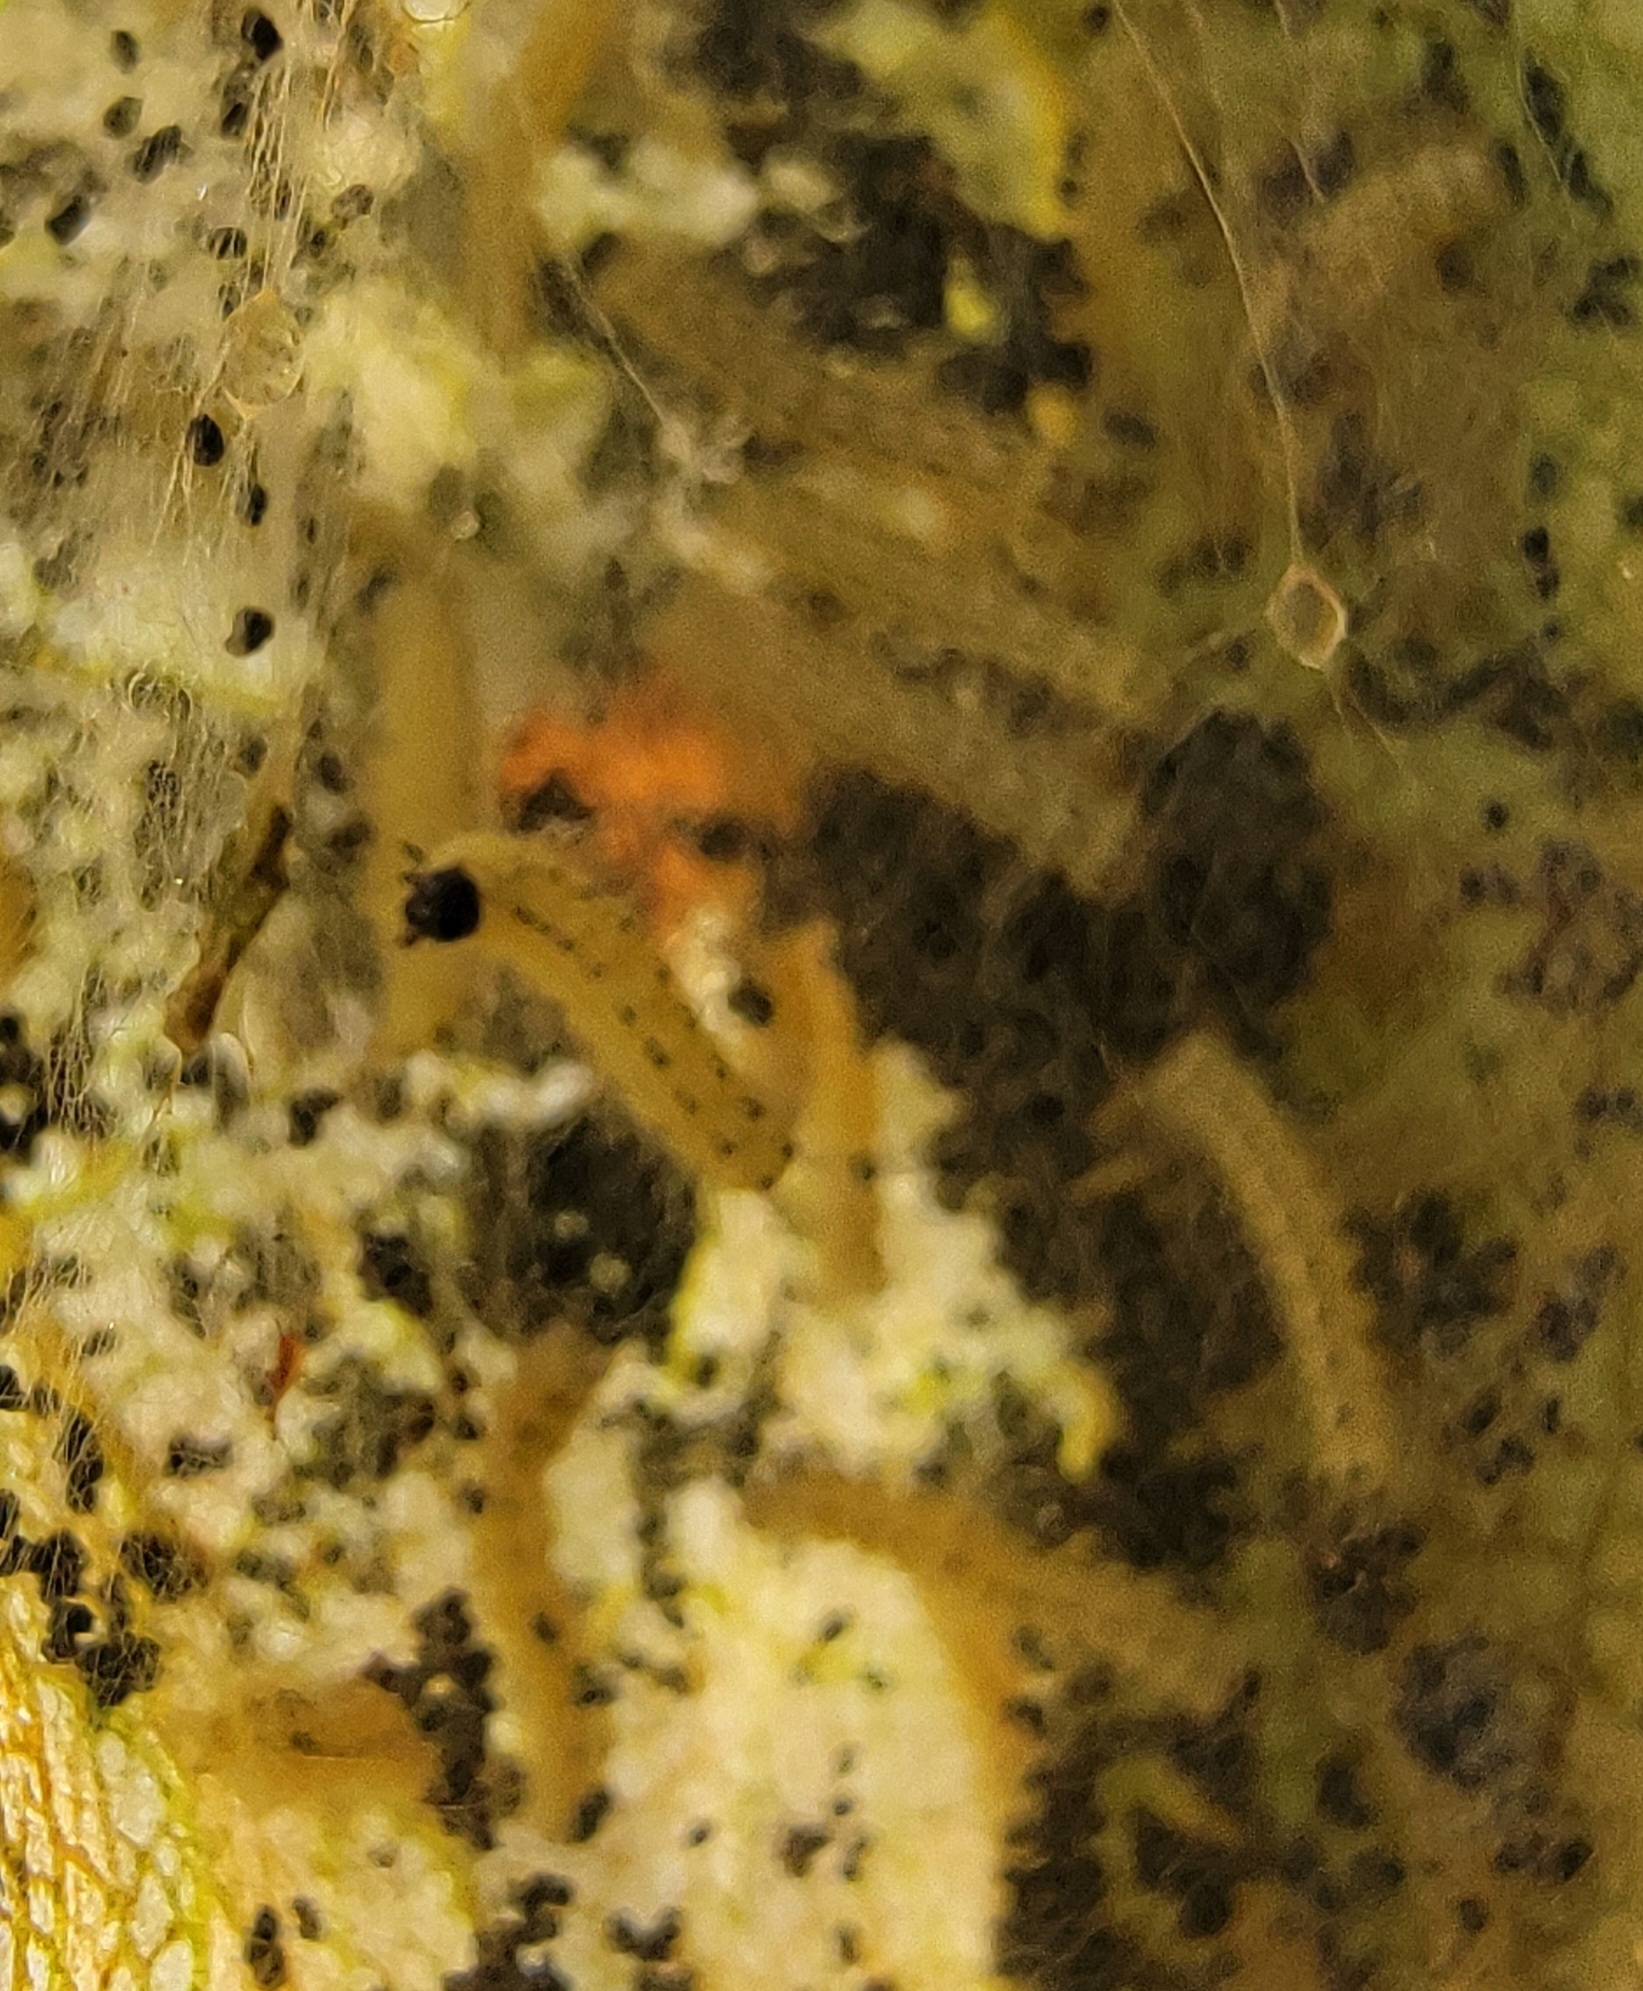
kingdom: Animalia
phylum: Arthropoda
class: Insecta
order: Lepidoptera
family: Erebidae
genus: Hyphantria
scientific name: Hyphantria cunea
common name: American white moth
